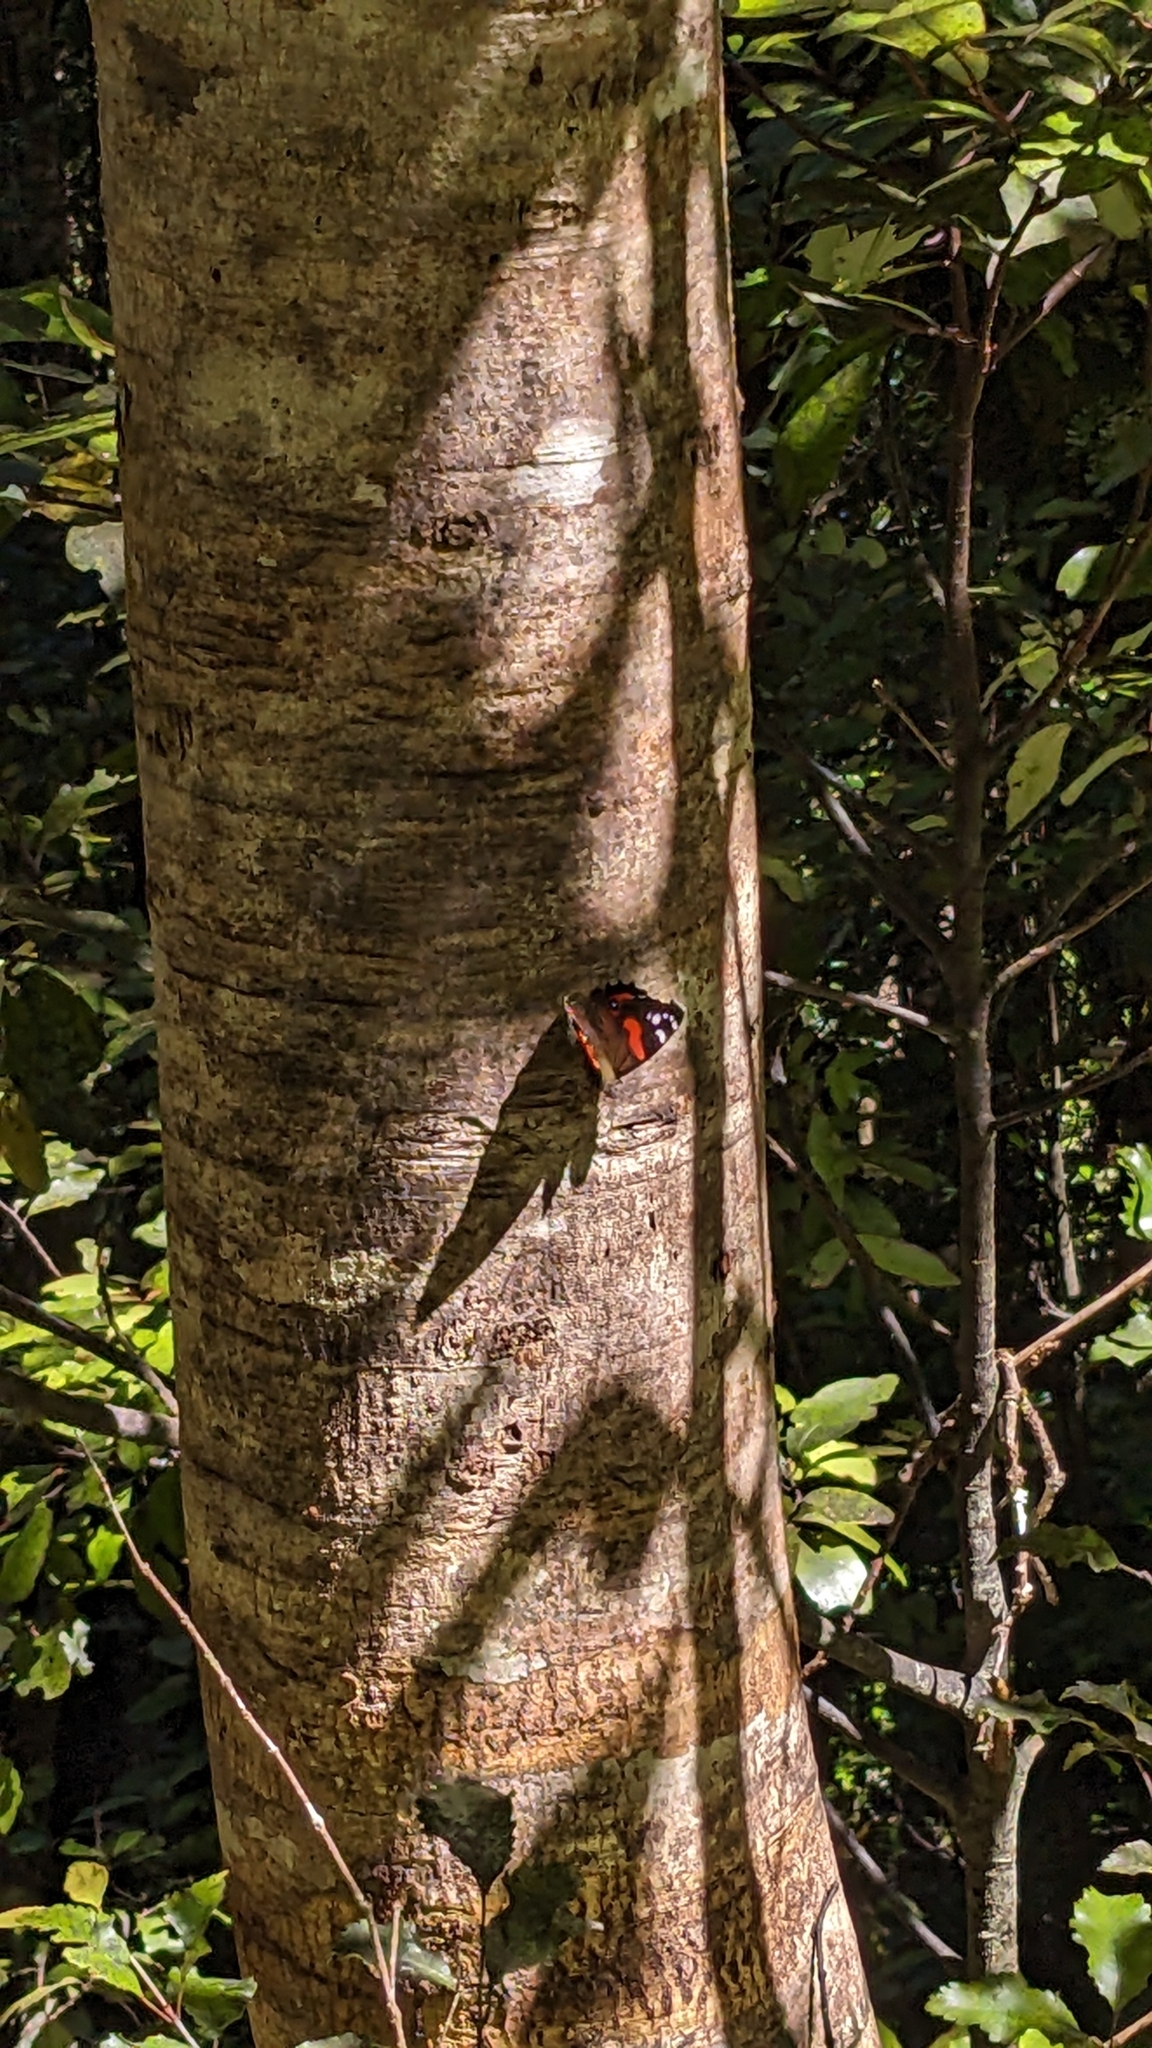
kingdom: Animalia
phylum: Arthropoda
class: Insecta
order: Lepidoptera
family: Nymphalidae
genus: Vanessa
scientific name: Vanessa gonerilla
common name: New zealand red admiral
